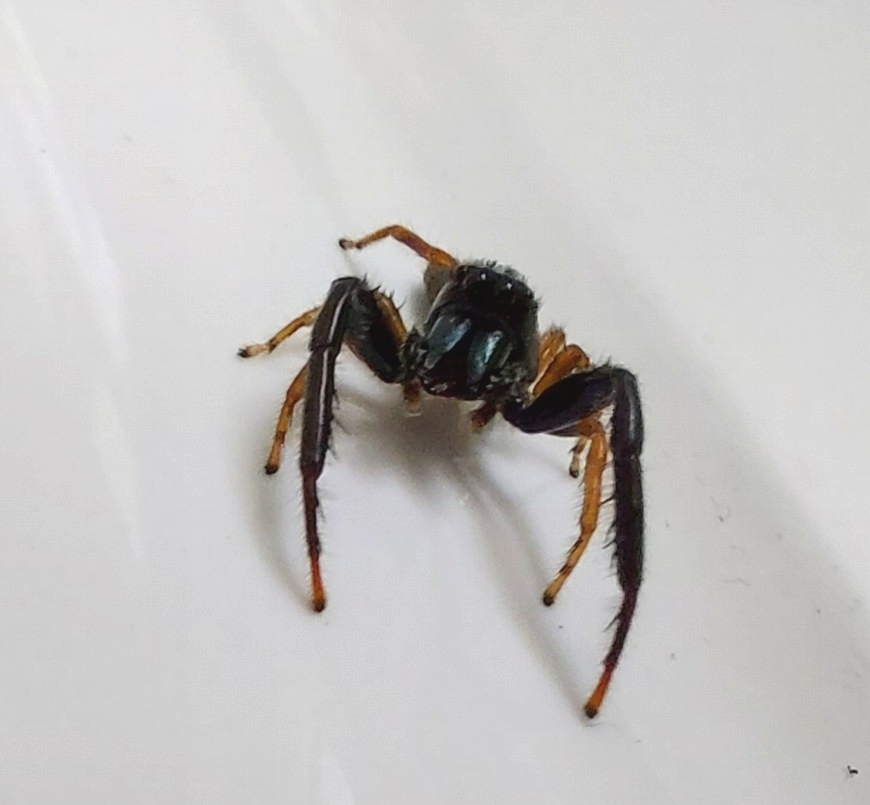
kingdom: Animalia
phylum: Arthropoda
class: Arachnida
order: Araneae
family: Salticidae
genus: Trite
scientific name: Trite planiceps
